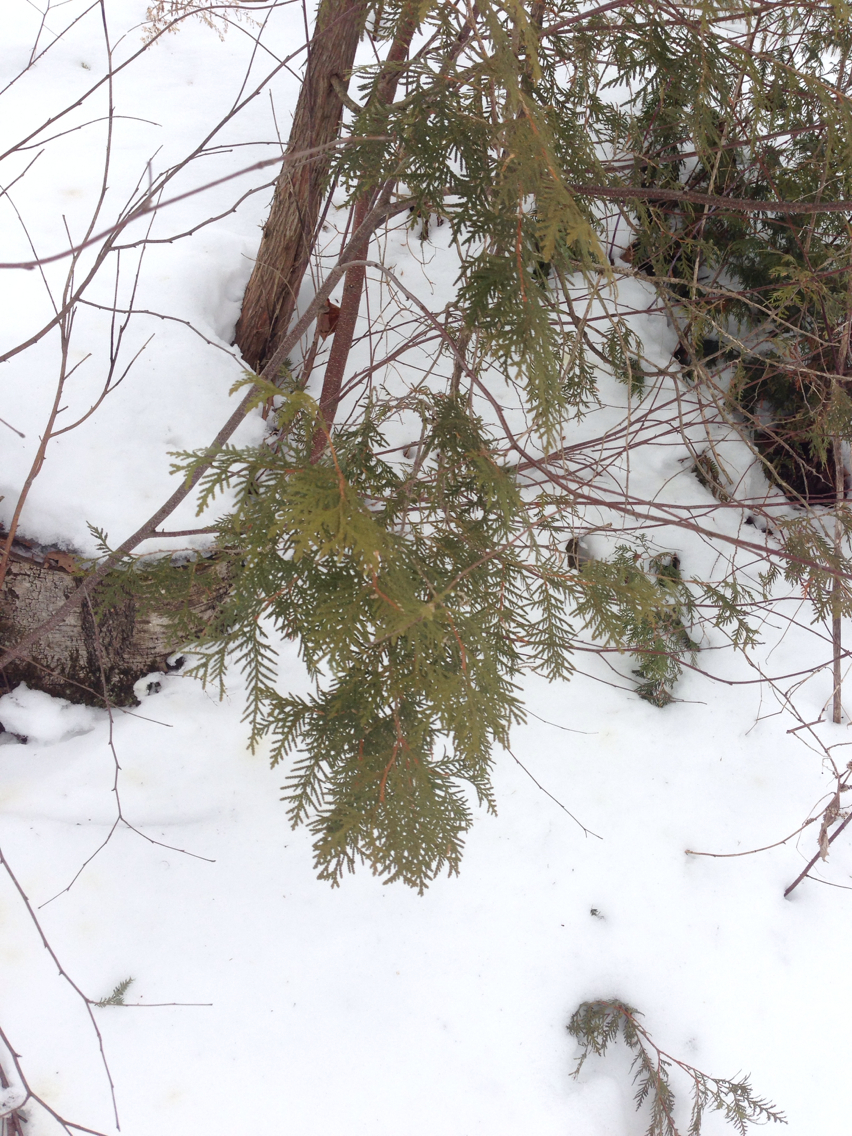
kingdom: Plantae
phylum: Tracheophyta
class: Pinopsida
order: Pinales
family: Cupressaceae
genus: Thuja
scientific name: Thuja occidentalis
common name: Northern white-cedar
